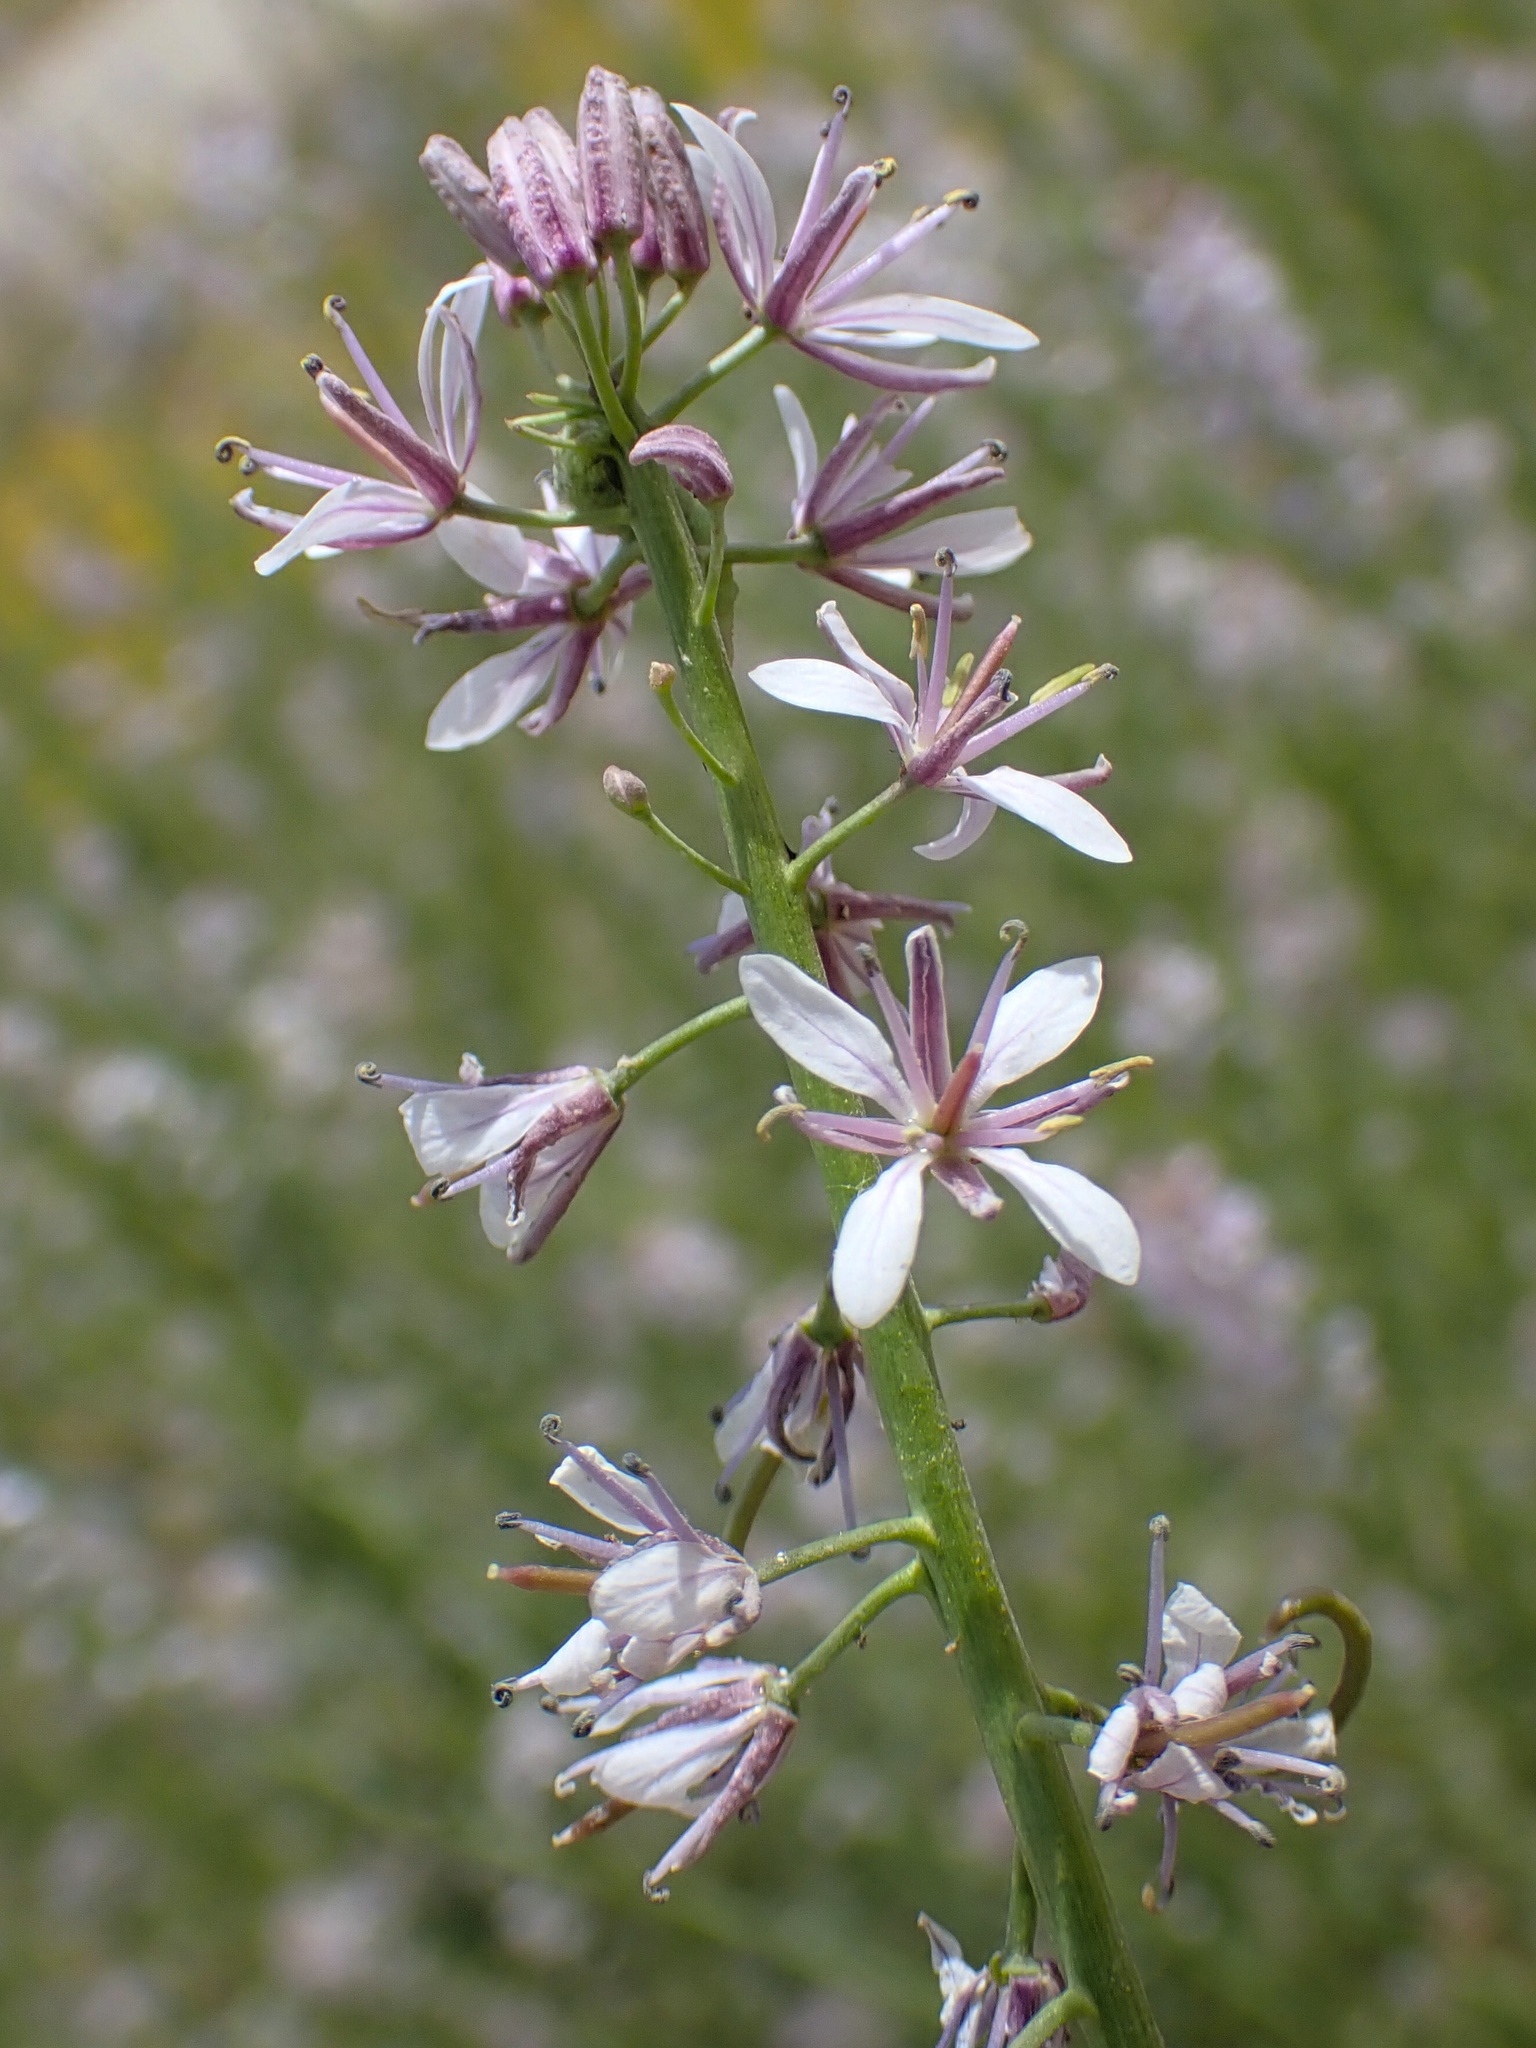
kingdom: Plantae
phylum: Tracheophyta
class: Magnoliopsida
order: Brassicales
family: Brassicaceae
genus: Streptanthus
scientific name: Streptanthus anceps
